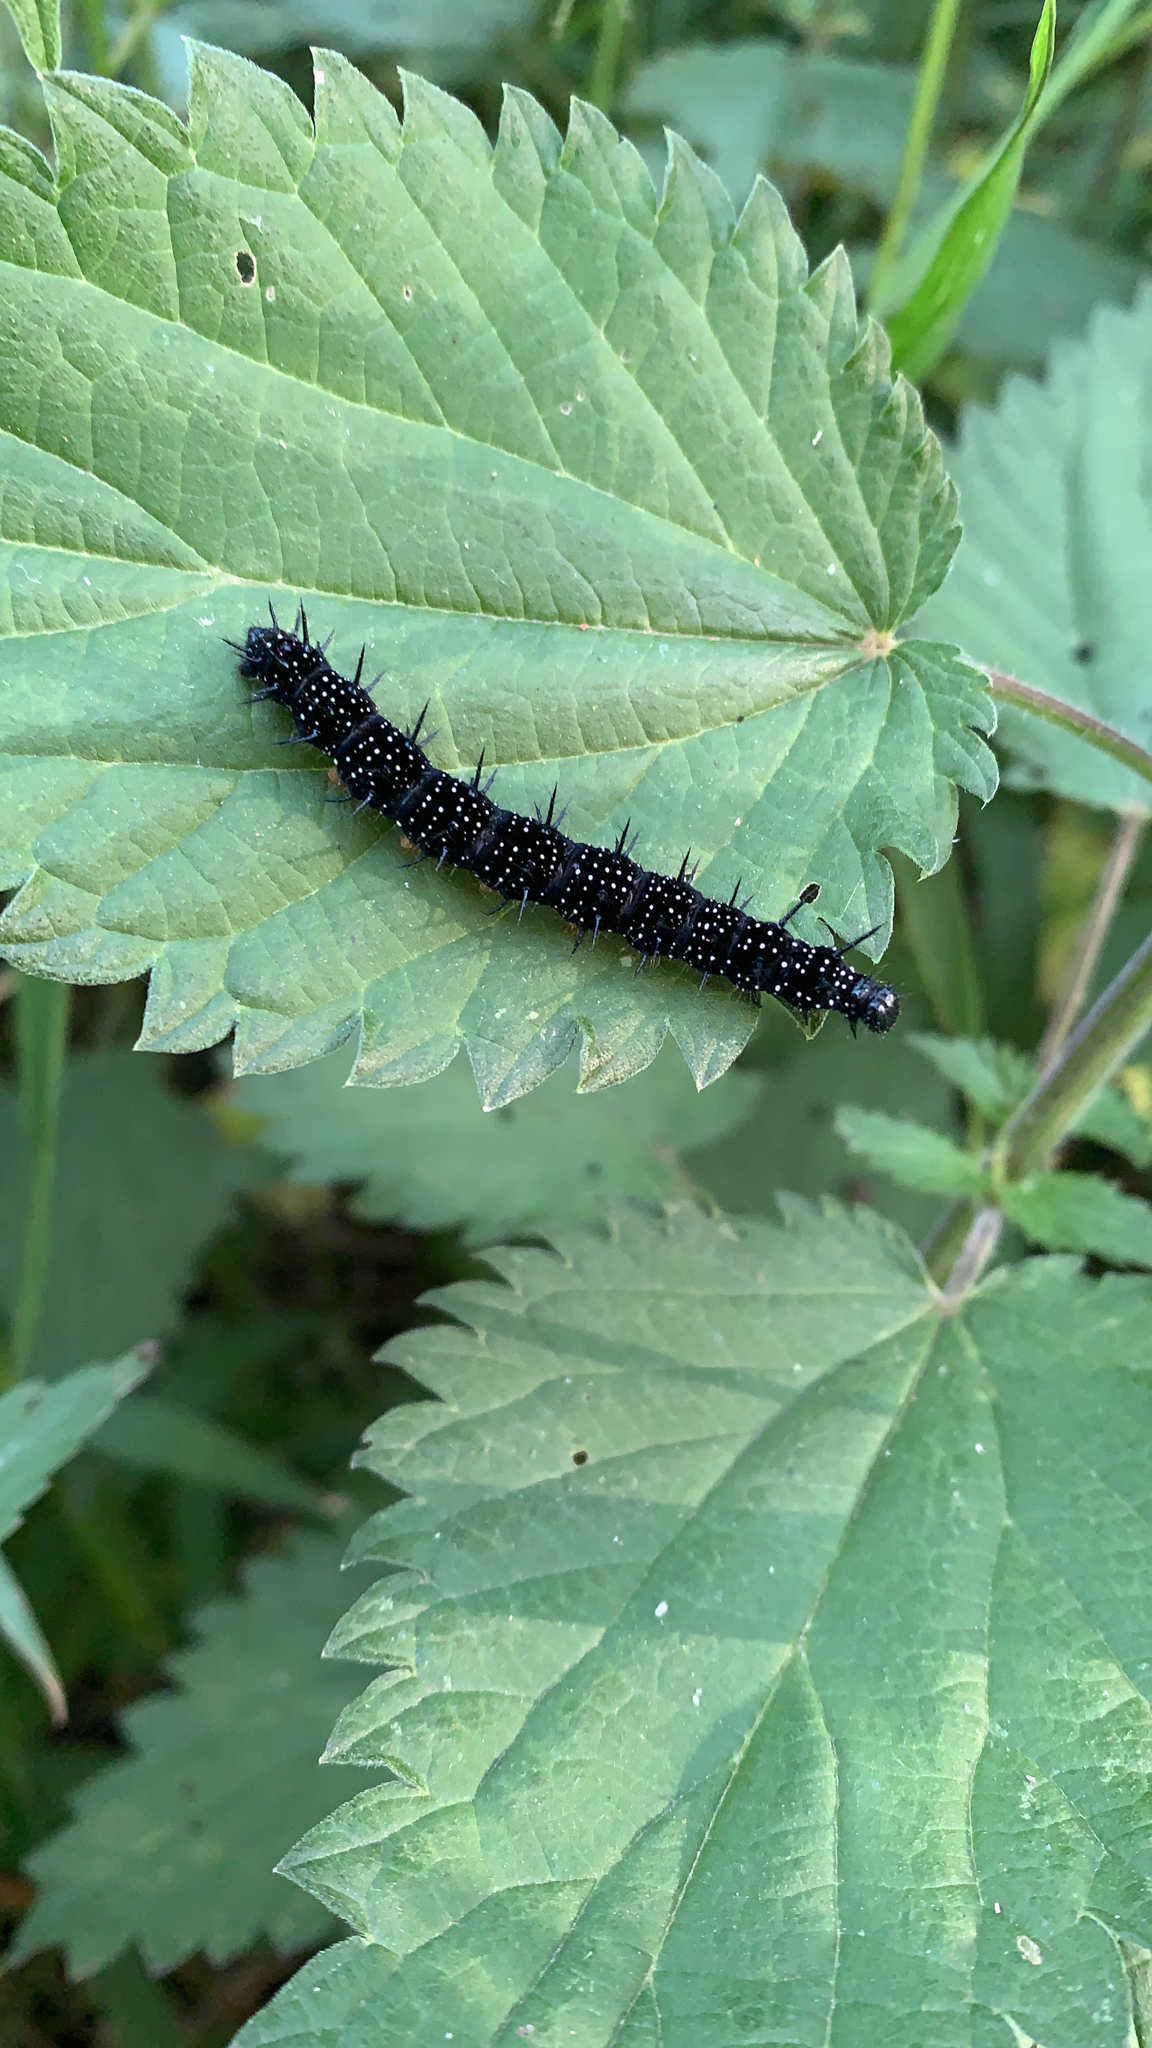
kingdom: Animalia
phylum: Arthropoda
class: Insecta
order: Lepidoptera
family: Nymphalidae
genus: Aglais
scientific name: Aglais io
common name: Peacock
